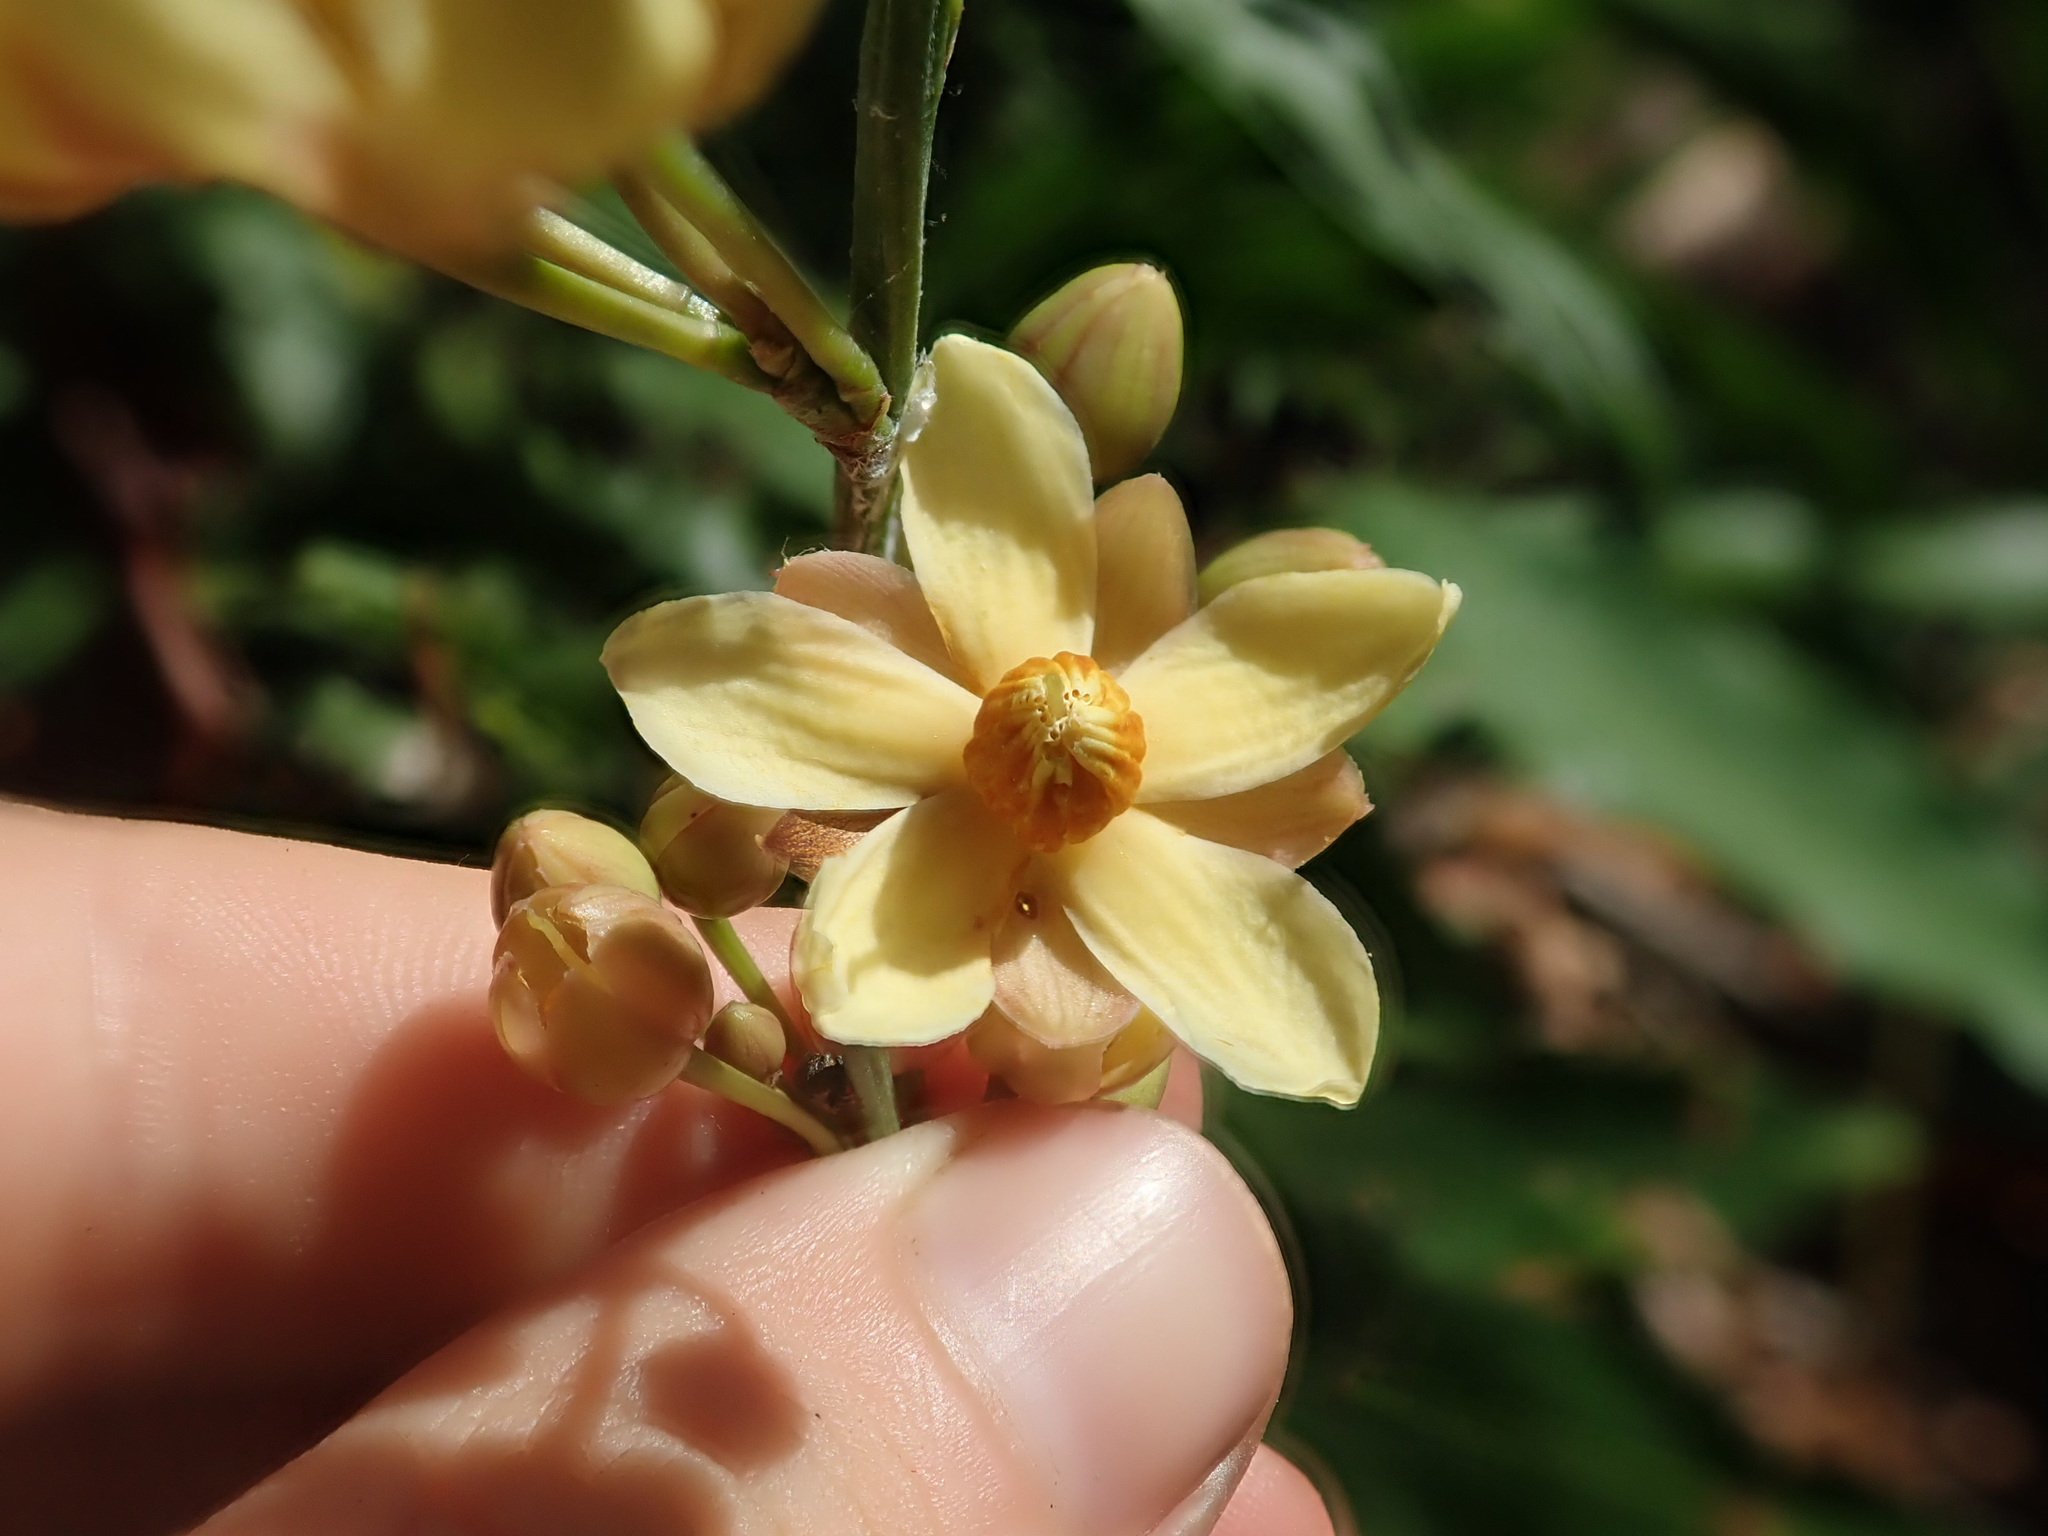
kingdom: Plantae
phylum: Tracheophyta
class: Magnoliopsida
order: Malpighiales
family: Ochnaceae
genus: Gomphia
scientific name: Gomphia serrata
